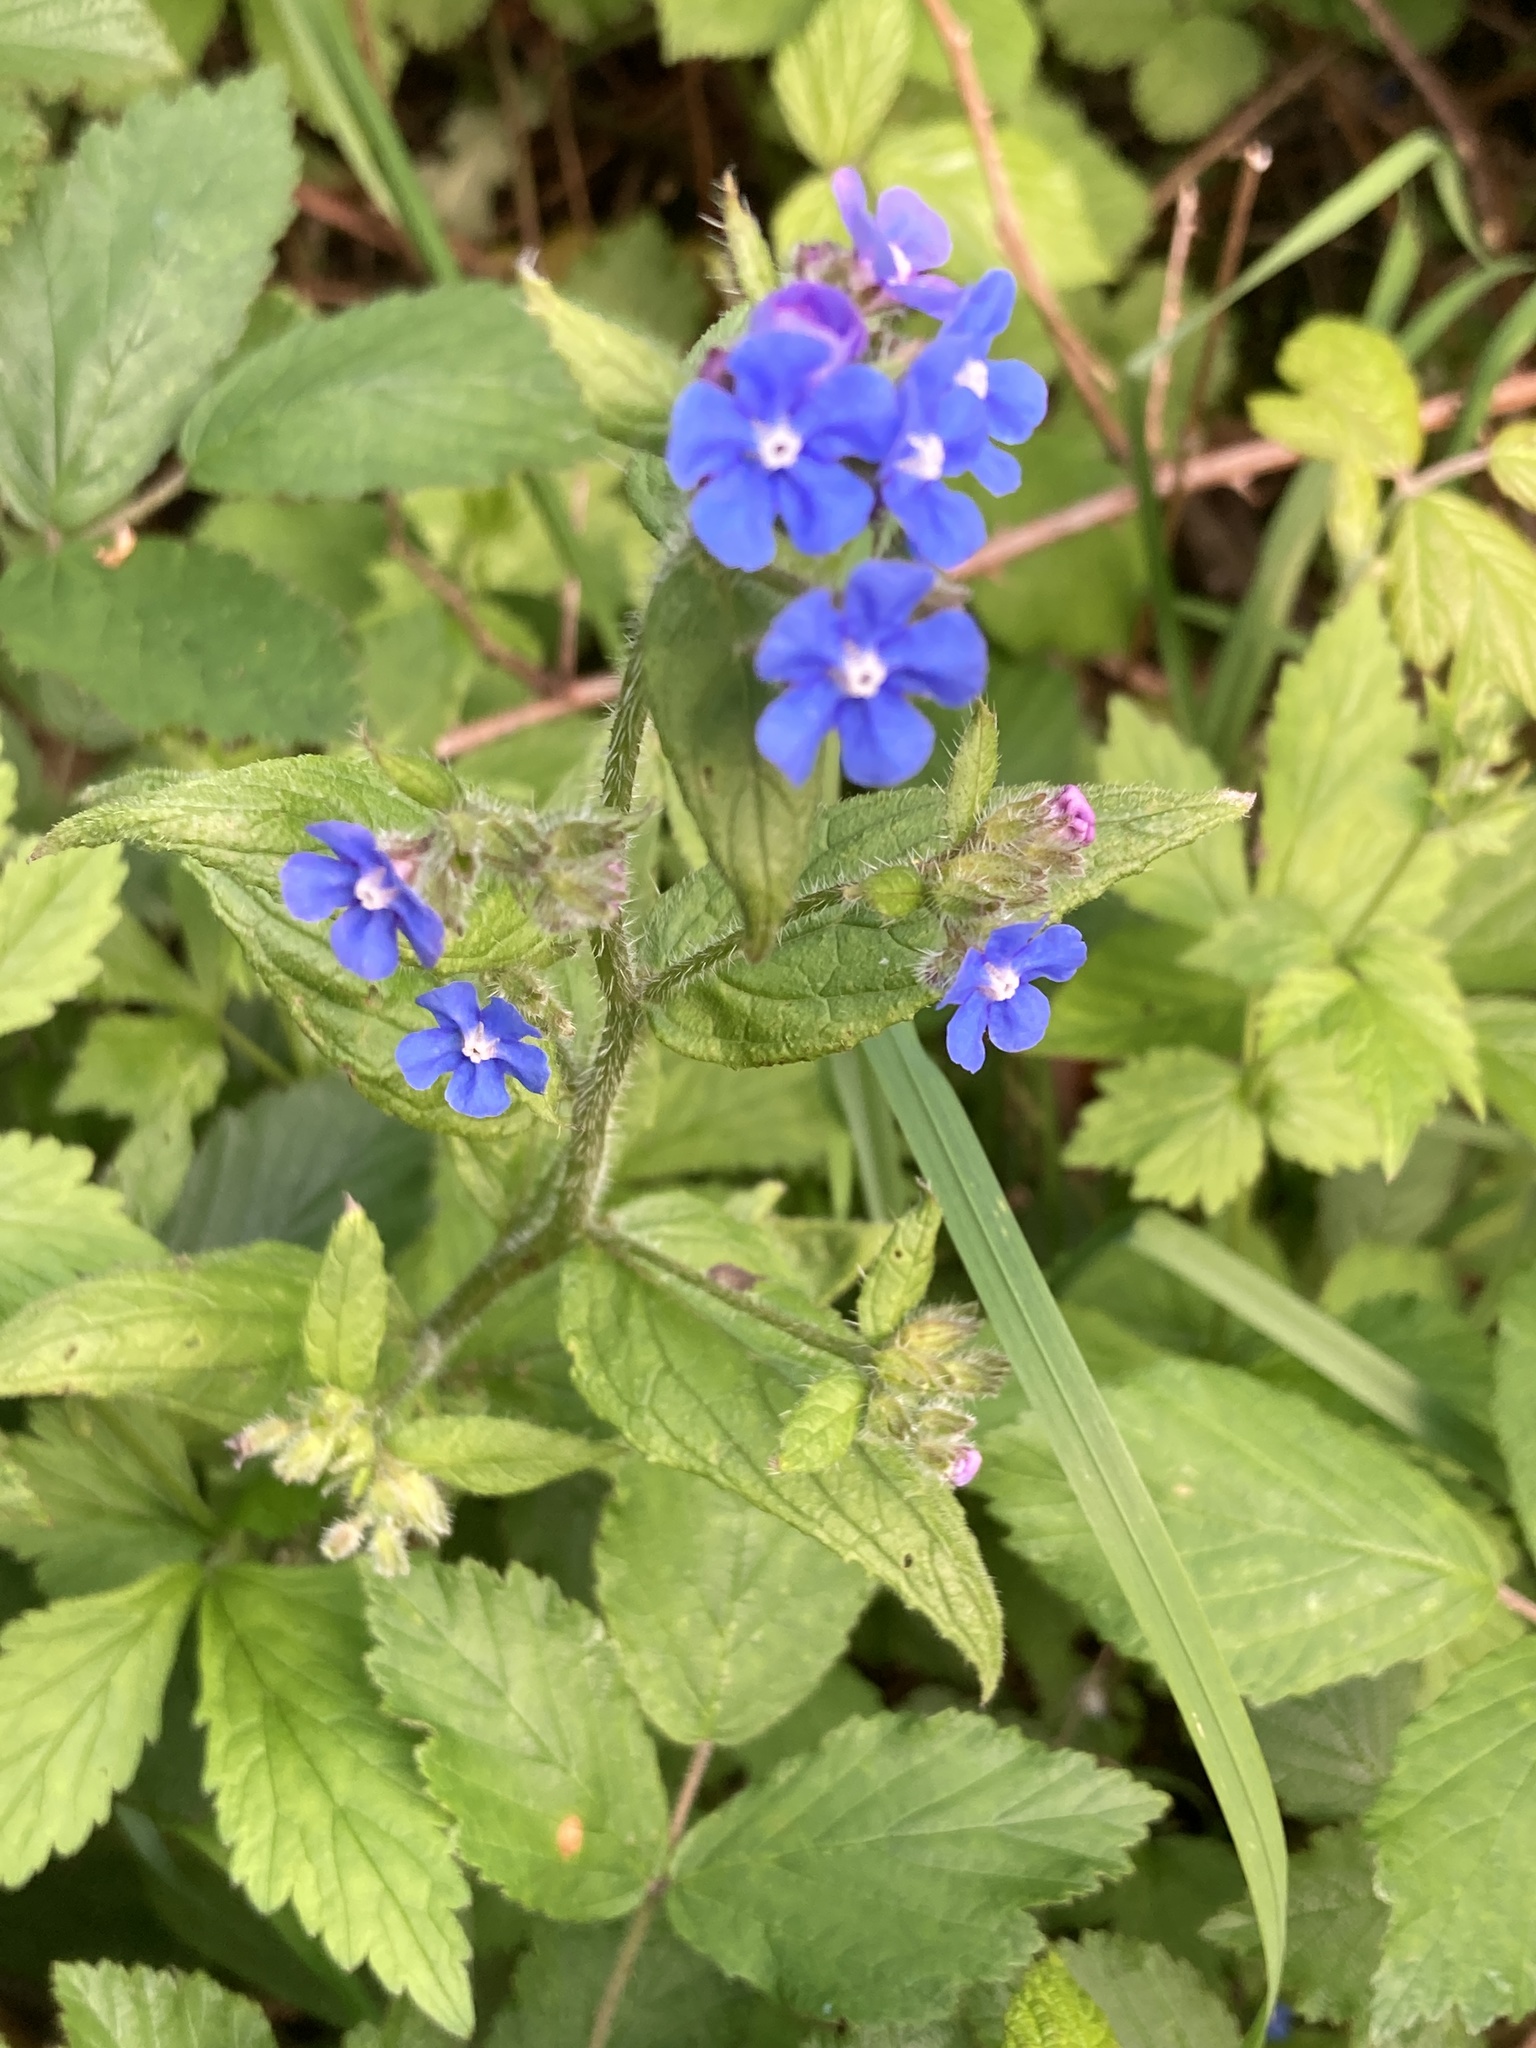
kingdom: Plantae
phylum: Tracheophyta
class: Magnoliopsida
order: Boraginales
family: Boraginaceae
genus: Pentaglottis
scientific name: Pentaglottis sempervirens
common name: Green alkanet
